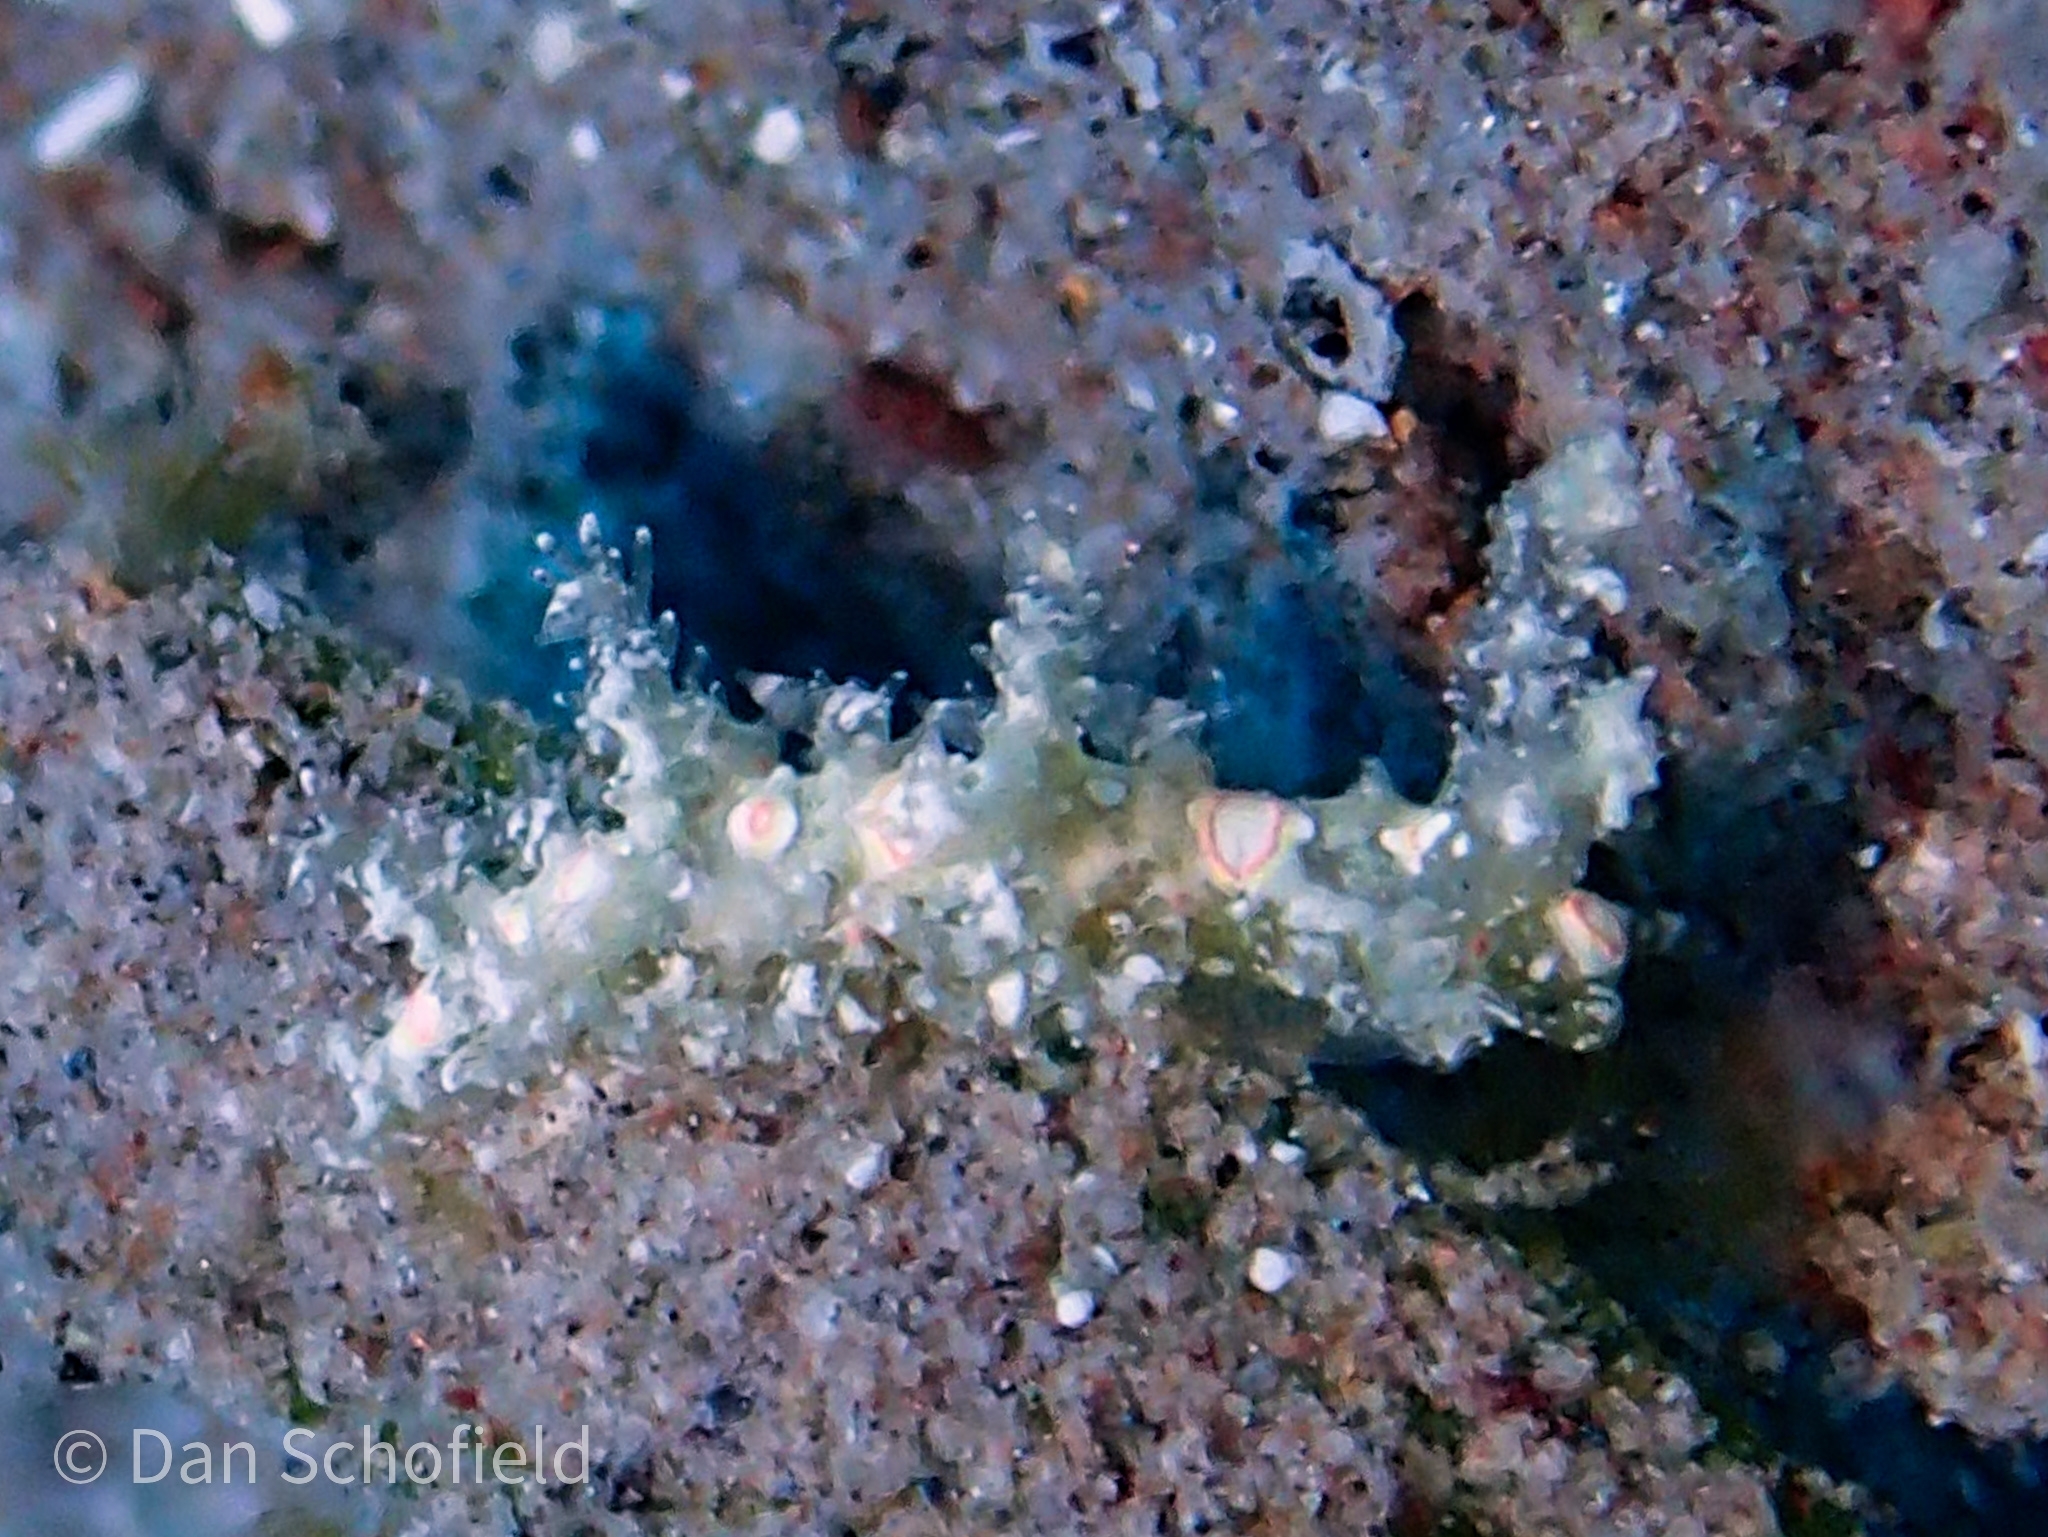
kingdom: Animalia
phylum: Mollusca
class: Gastropoda
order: Nudibranchia
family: Aeolidiidae
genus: Limenandra
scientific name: Limenandra nodosa
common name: Warty baeolidia
